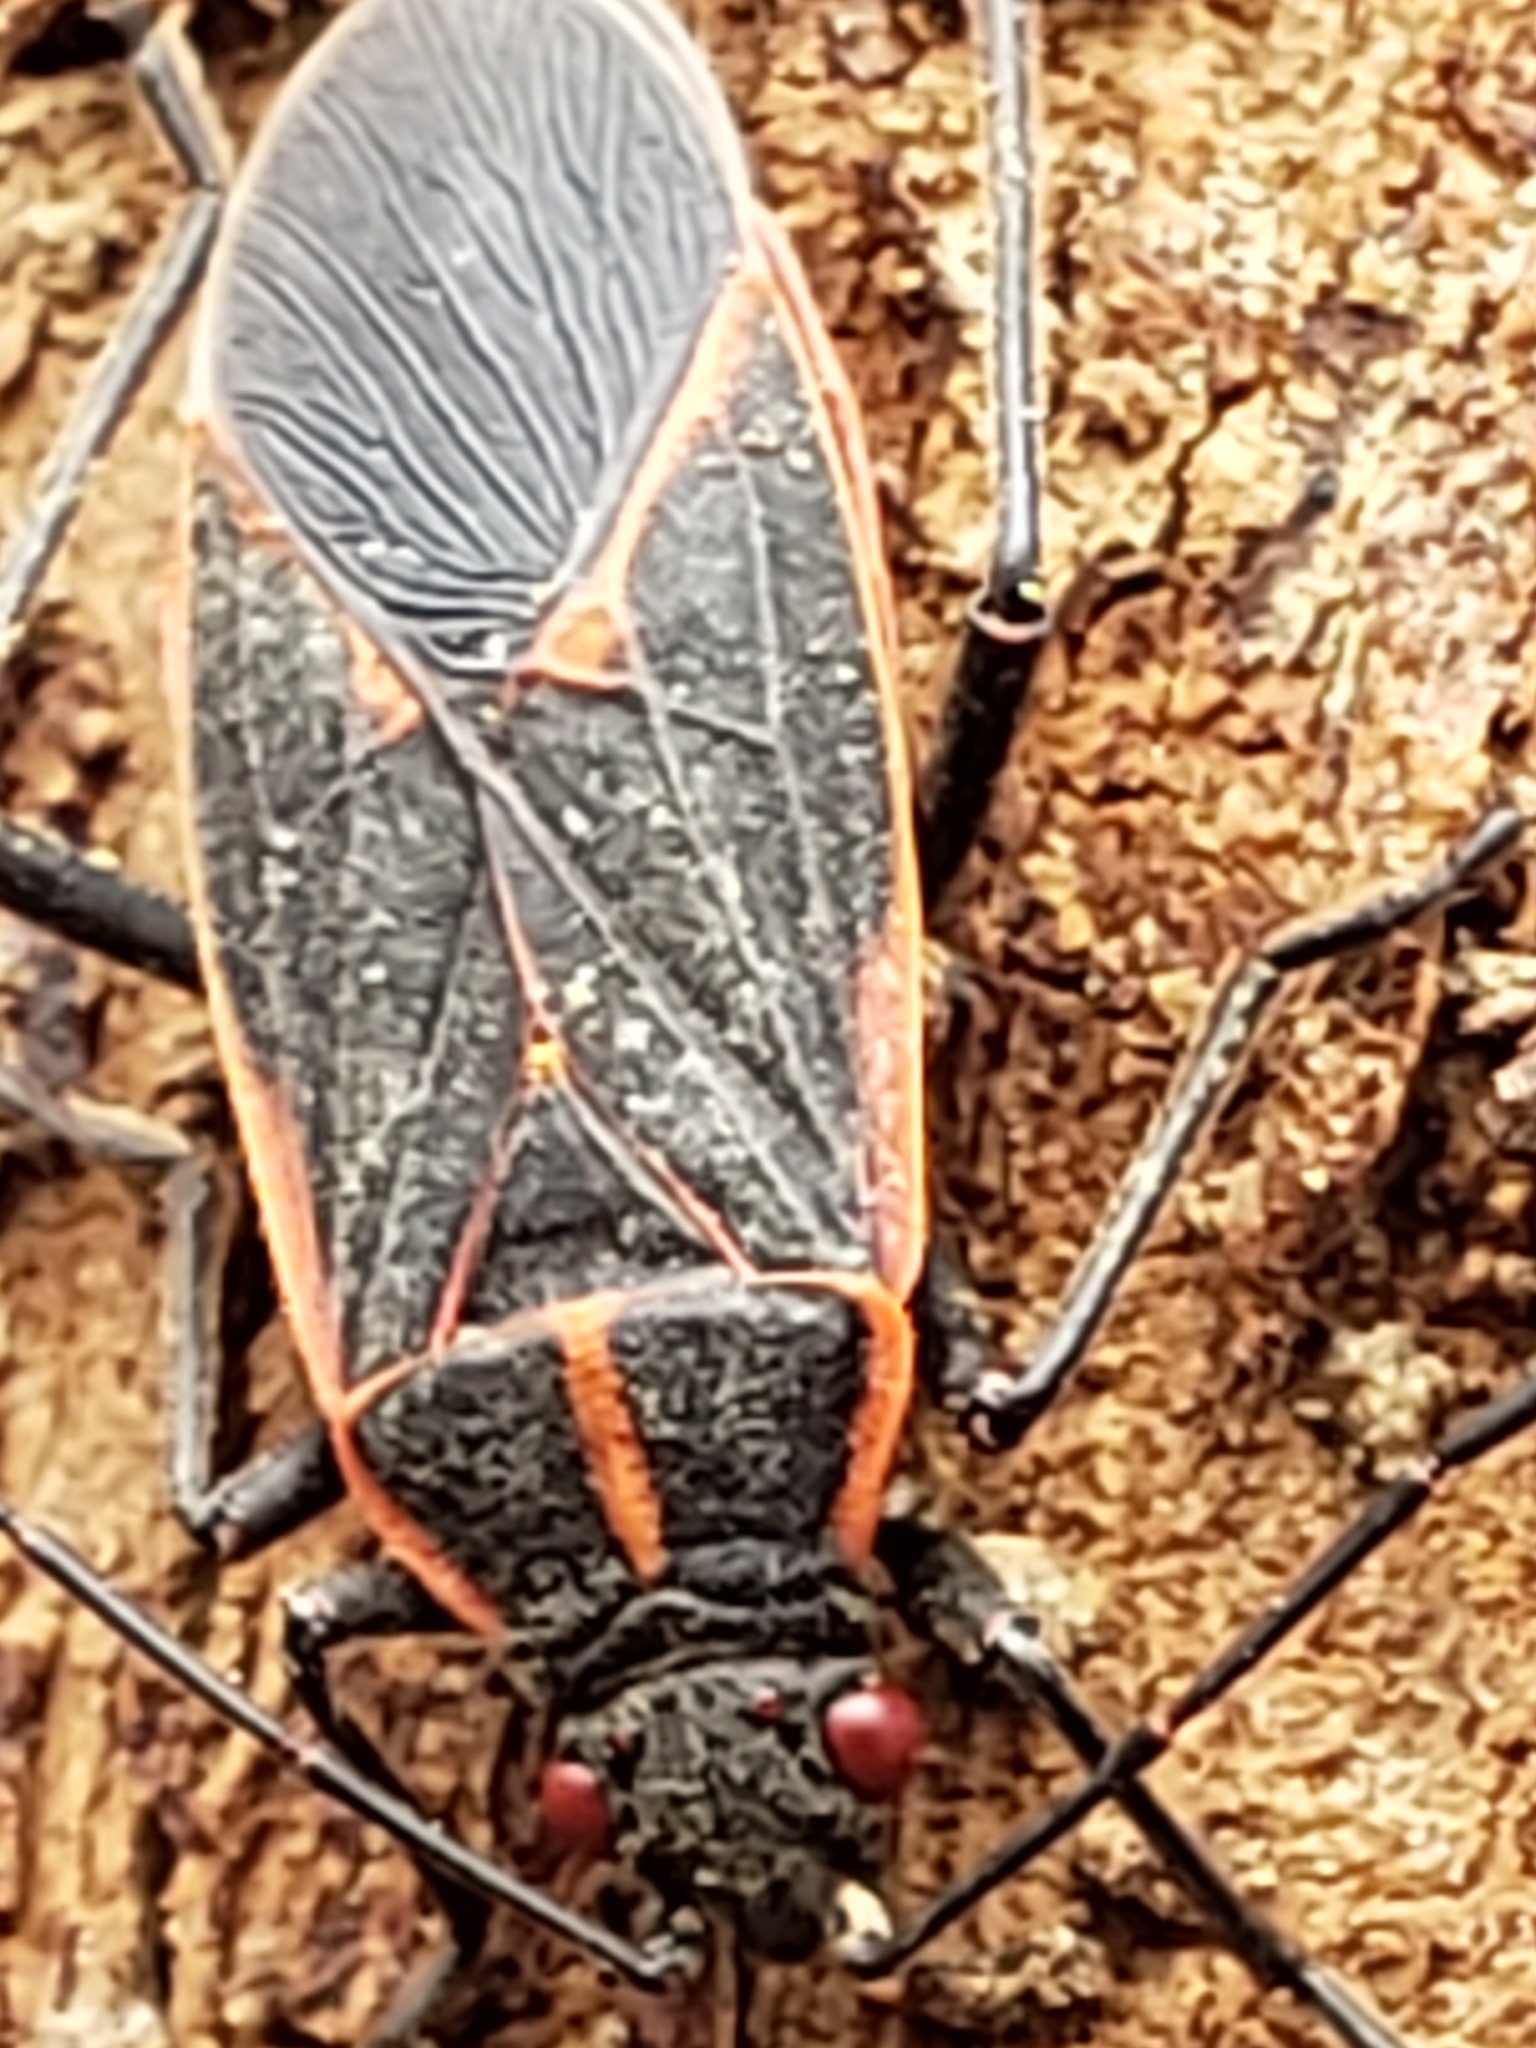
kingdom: Animalia
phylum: Arthropoda
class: Insecta
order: Hemiptera
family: Rhopalidae
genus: Boisea
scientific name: Boisea trivittata
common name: Boxelder bug
